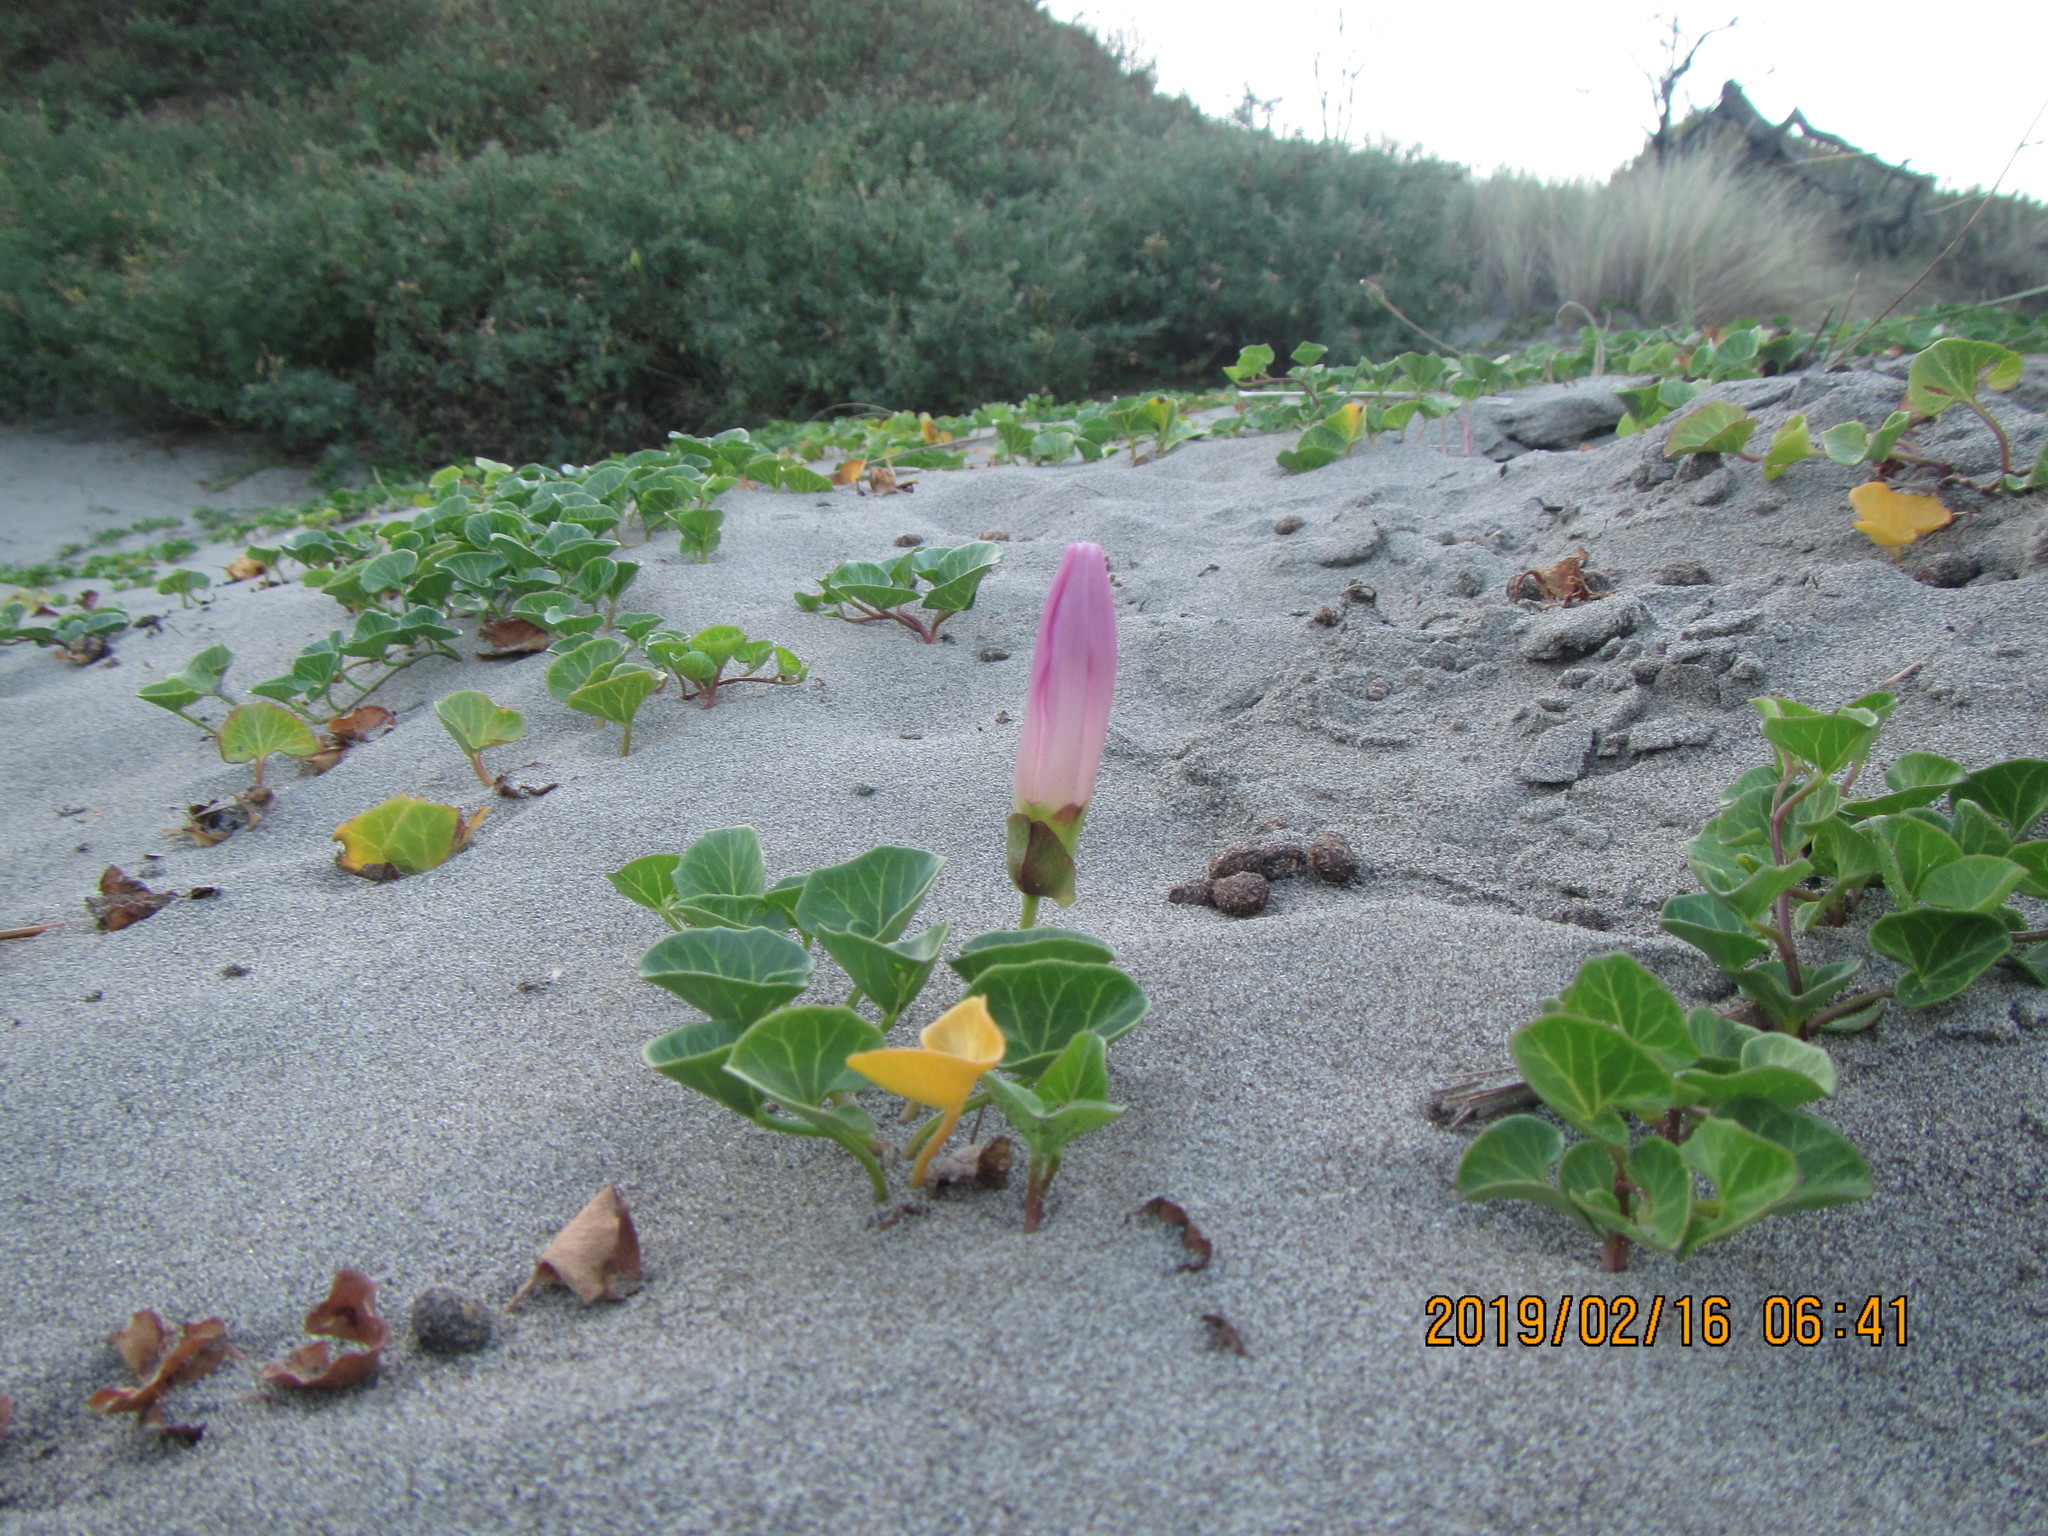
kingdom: Plantae
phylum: Tracheophyta
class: Magnoliopsida
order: Solanales
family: Convolvulaceae
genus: Calystegia
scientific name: Calystegia soldanella
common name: Sea bindweed
